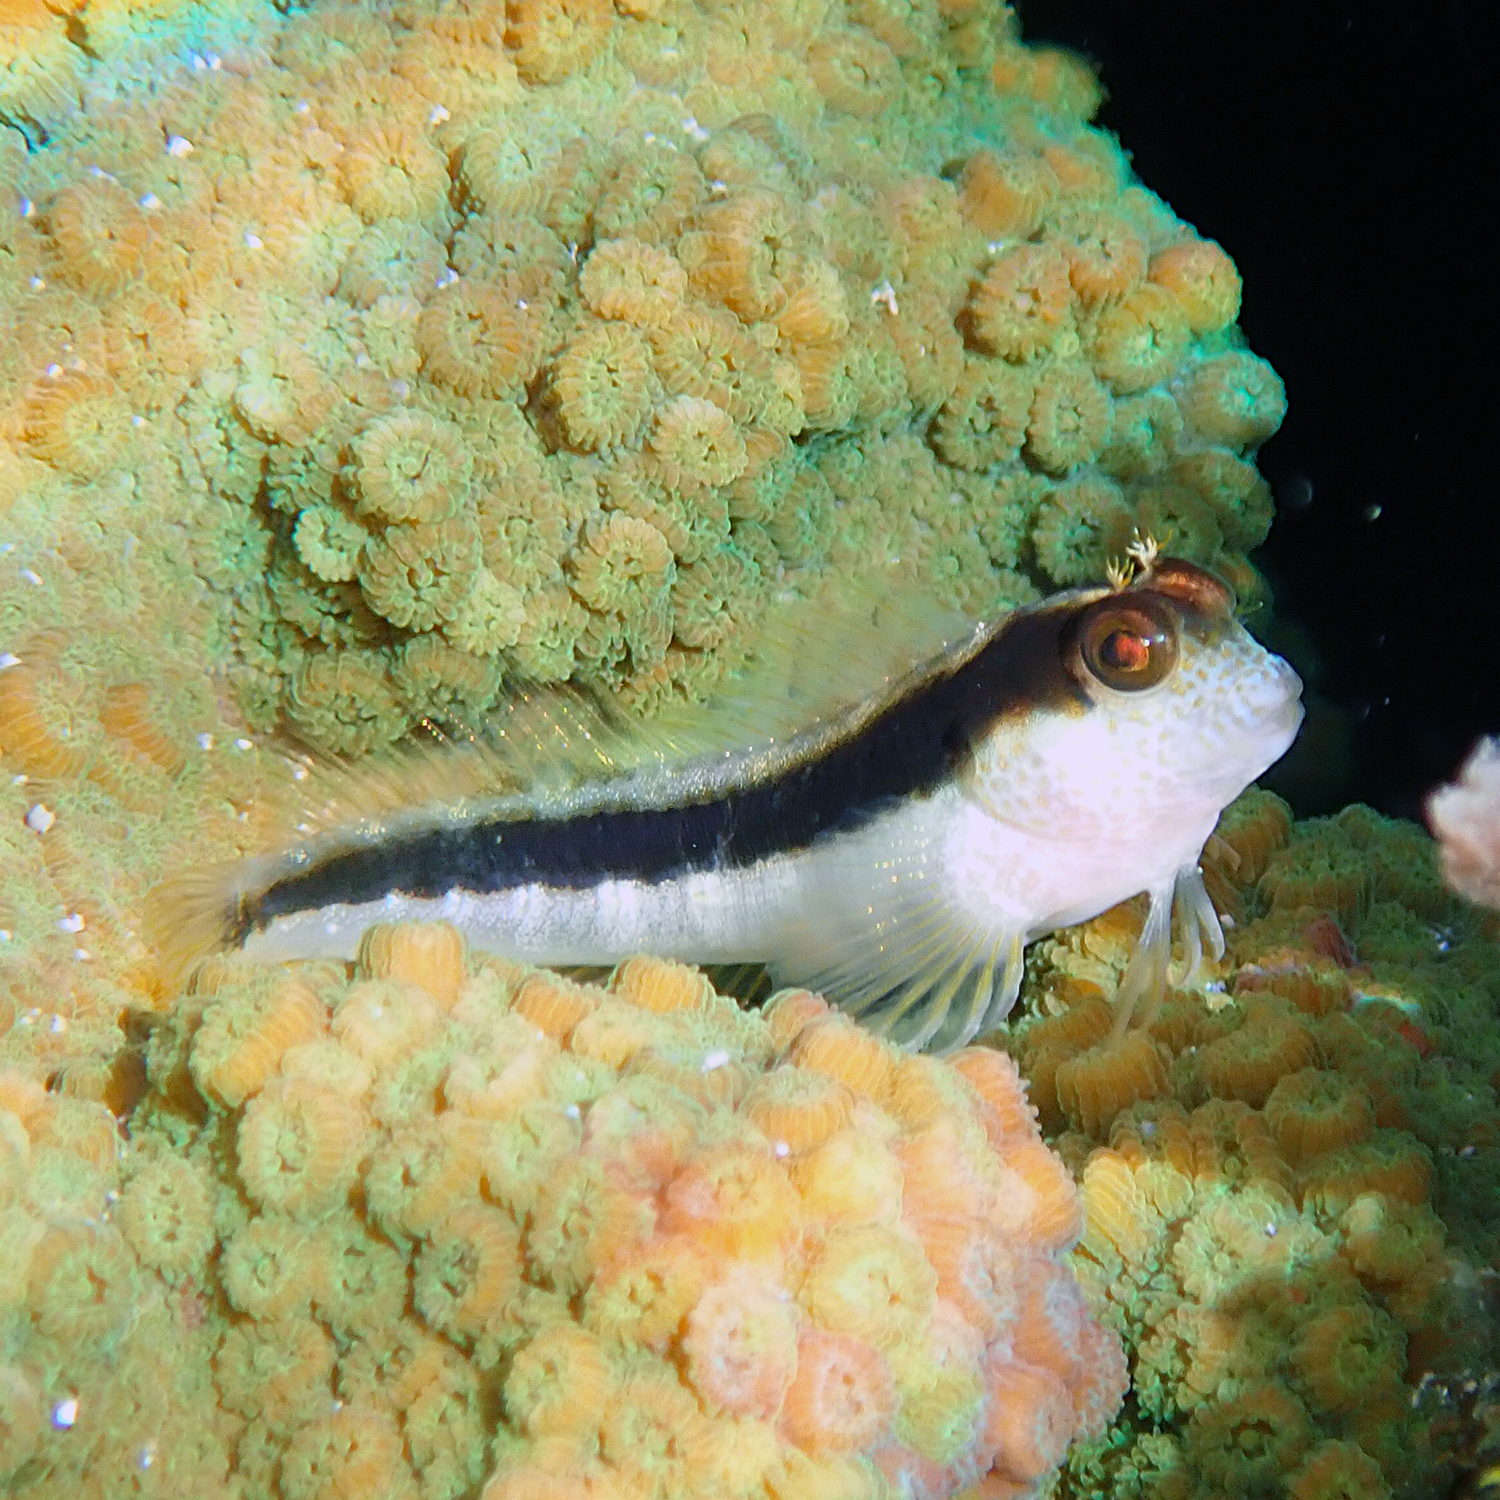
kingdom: Animalia
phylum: Chordata
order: Perciformes
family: Blenniidae
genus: Parablennius
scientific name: Parablennius serratolineatus
